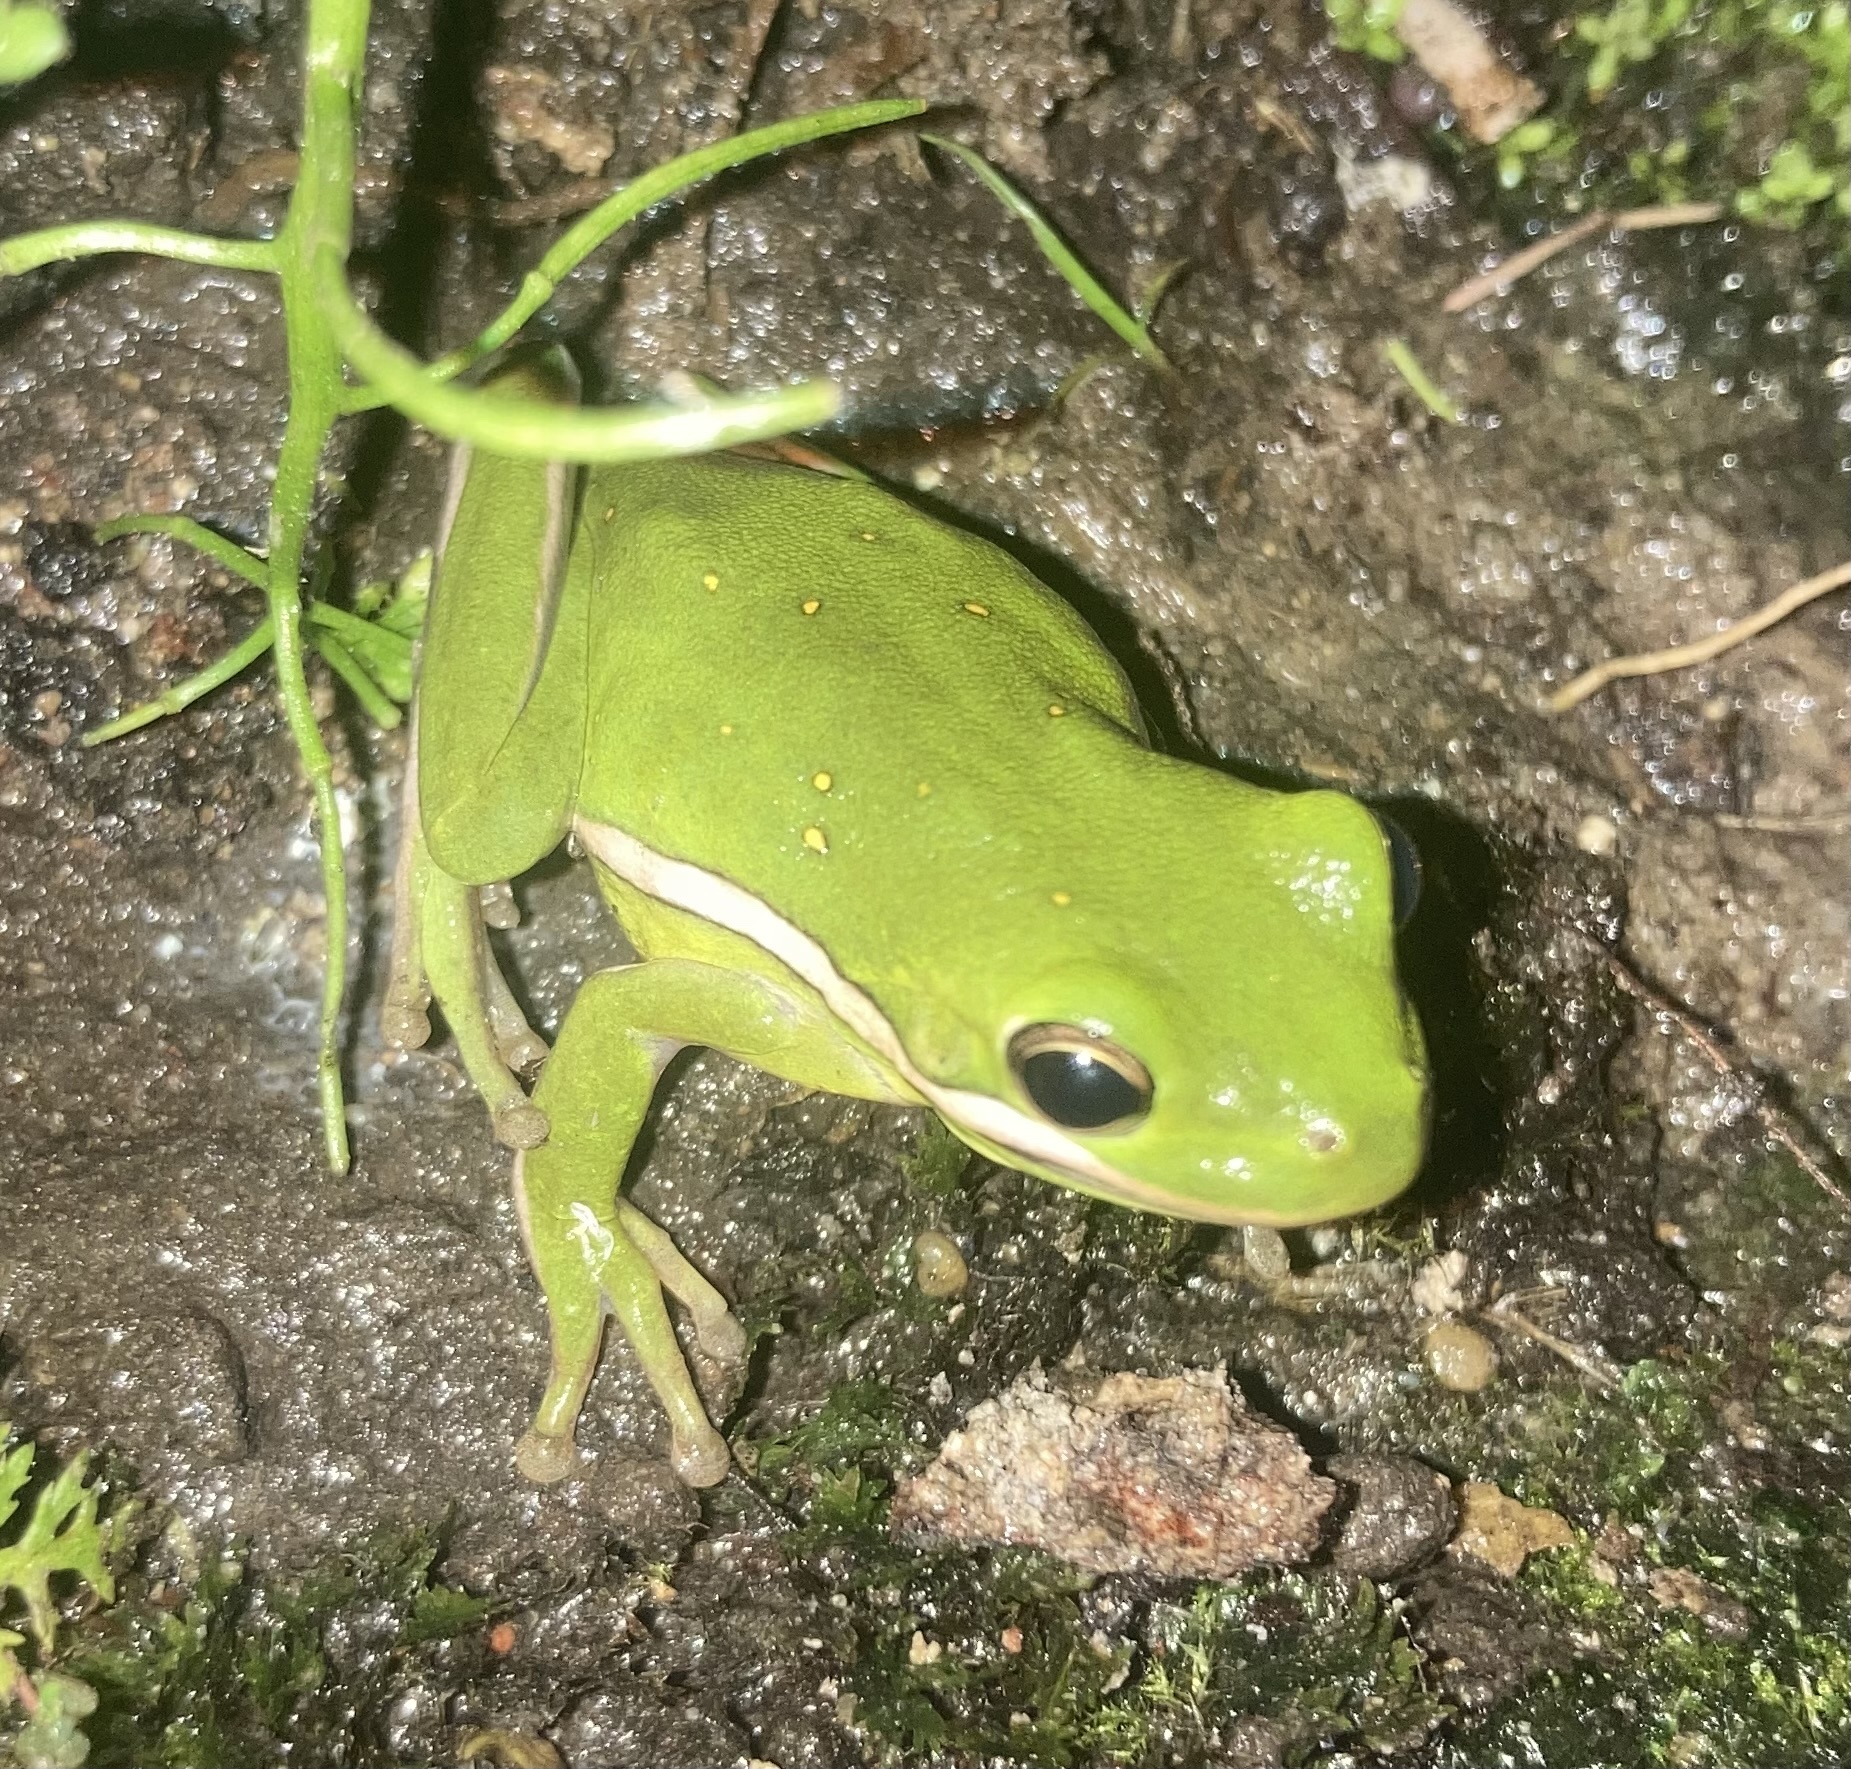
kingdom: Animalia
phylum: Chordata
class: Amphibia
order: Anura
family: Hylidae
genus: Dryophytes
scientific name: Dryophytes cinereus
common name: Green treefrog
